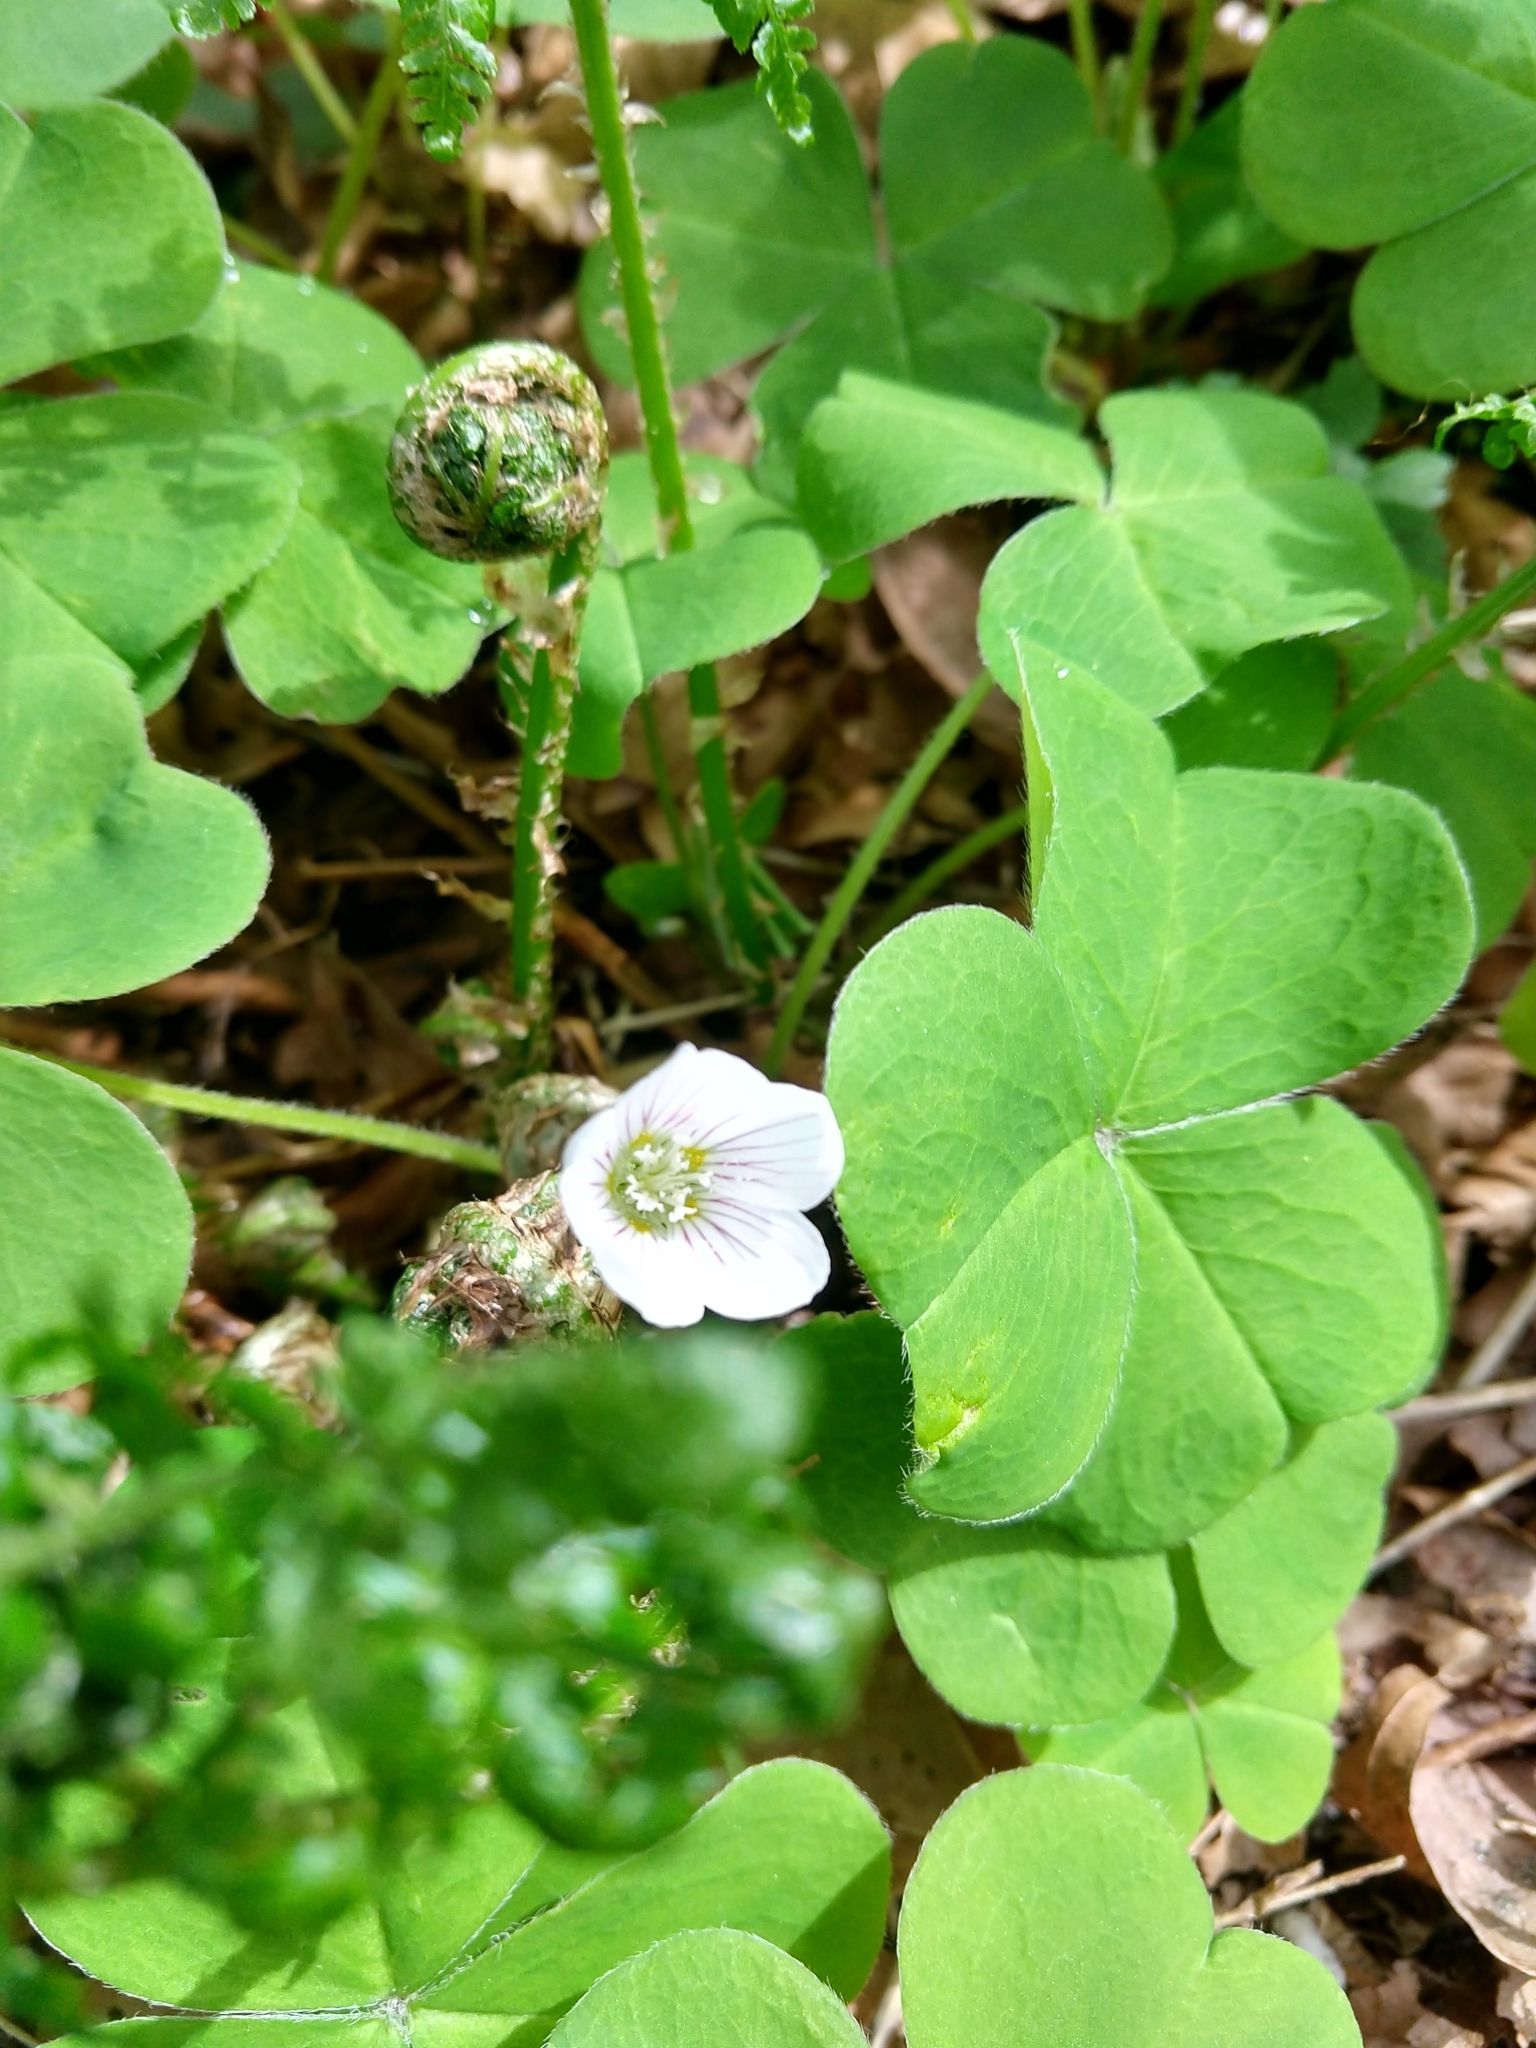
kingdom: Plantae
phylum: Tracheophyta
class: Magnoliopsida
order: Oxalidales
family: Oxalidaceae
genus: Oxalis
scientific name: Oxalis oregana
